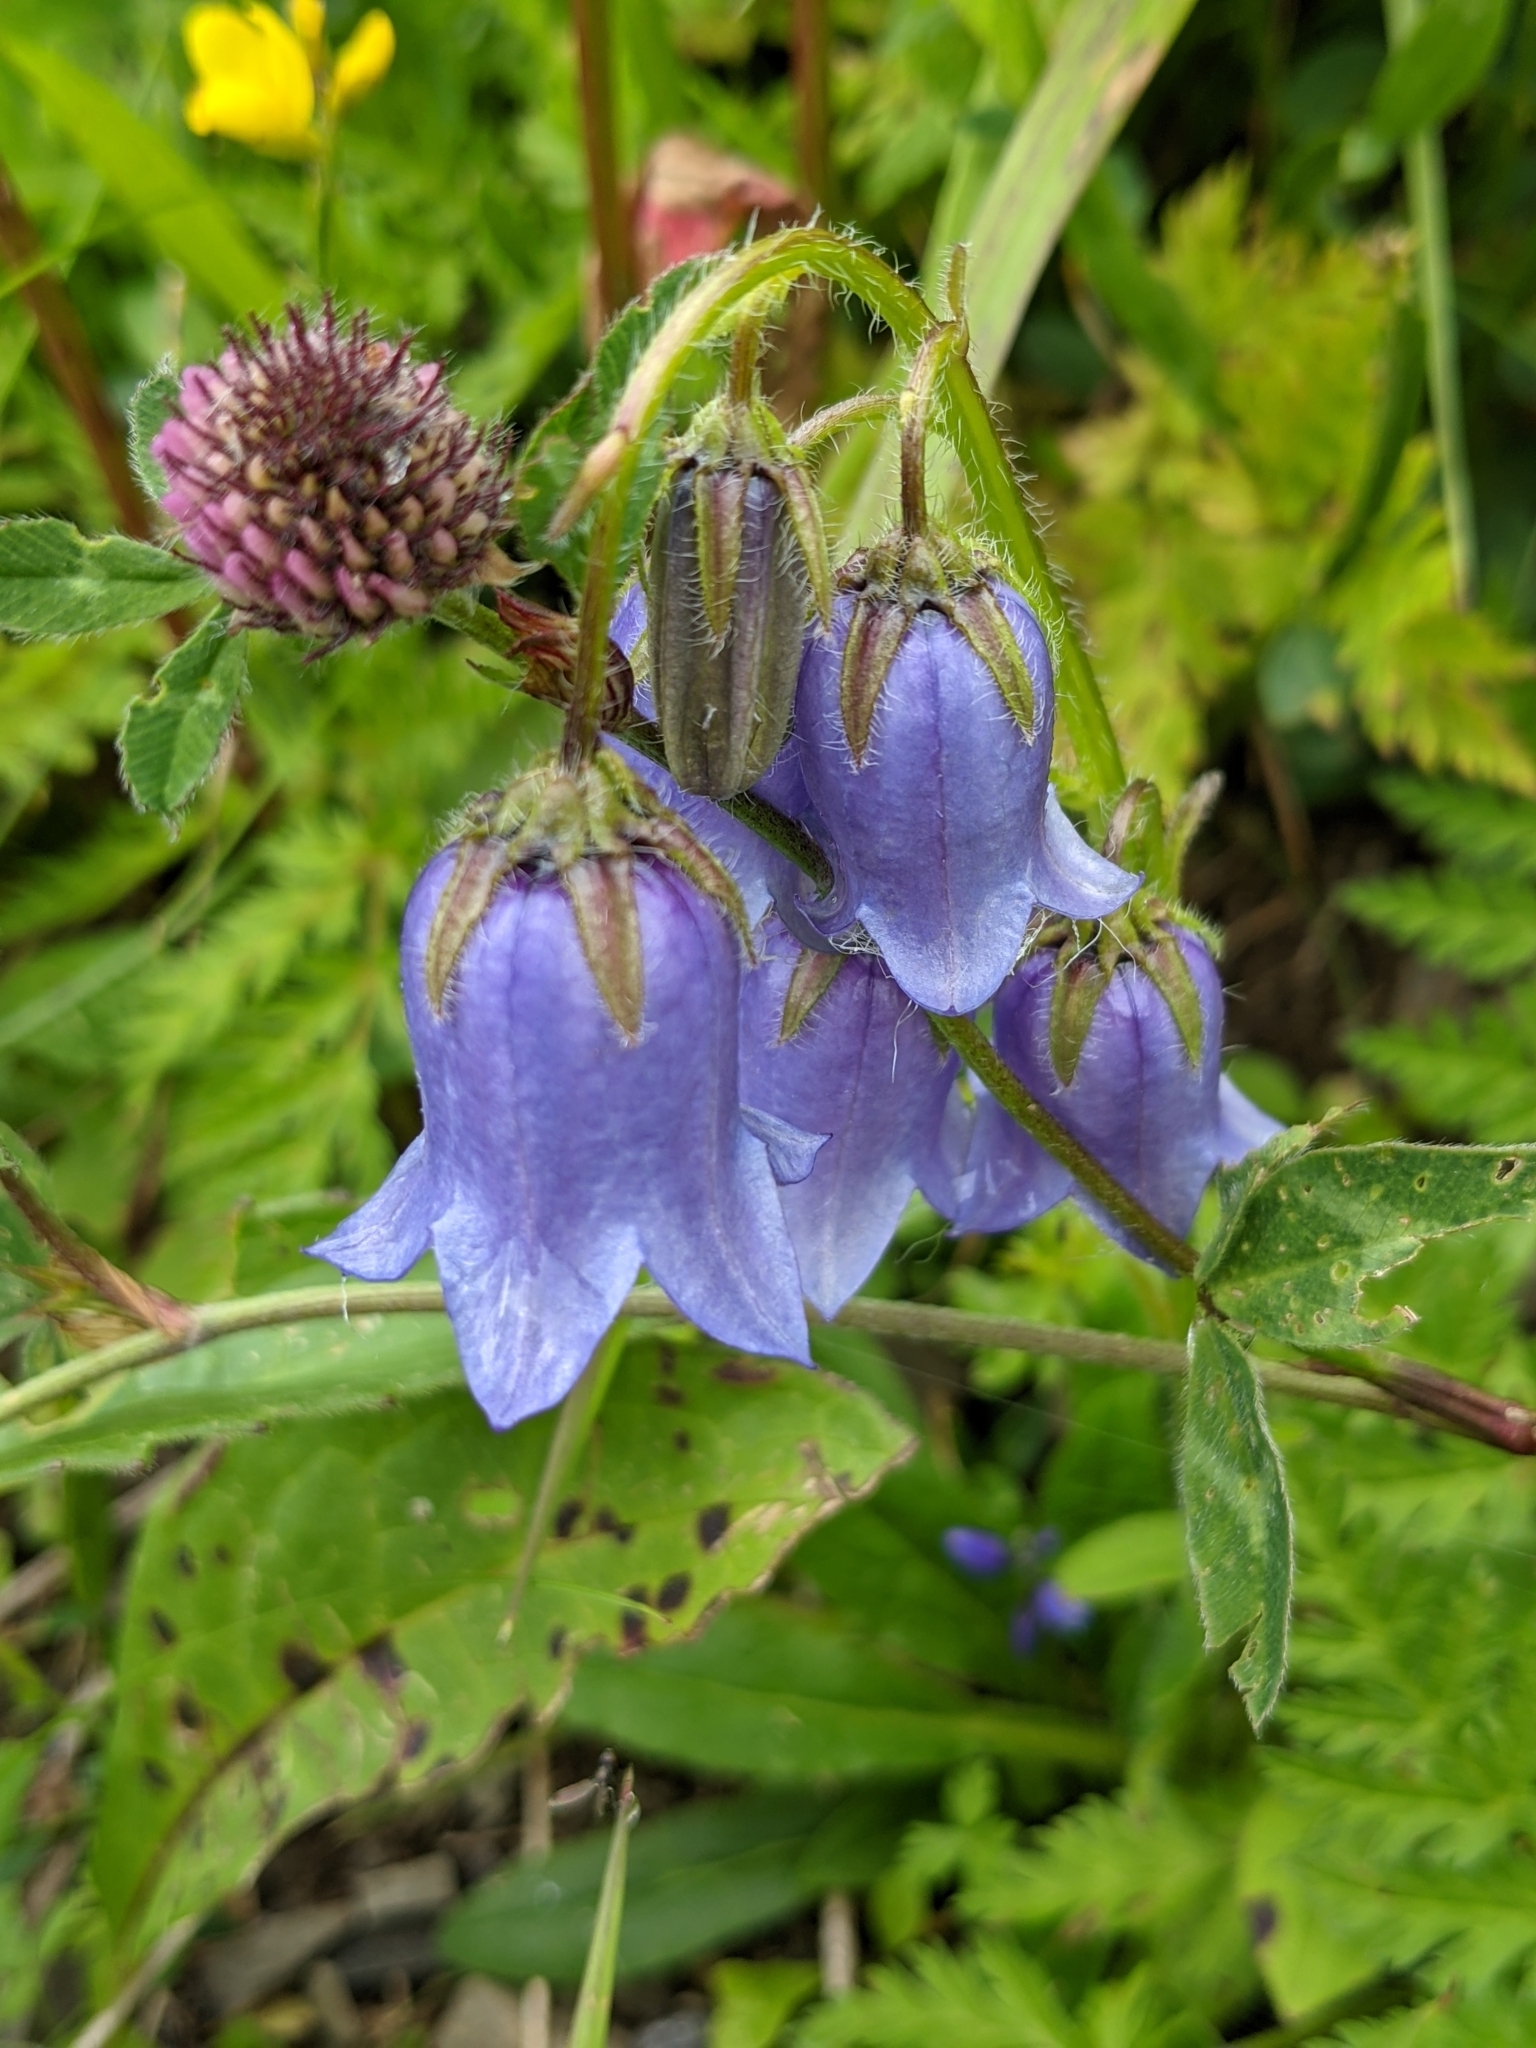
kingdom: Plantae
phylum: Tracheophyta
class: Magnoliopsida
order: Asterales
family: Campanulaceae
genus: Campanula
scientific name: Campanula barbata
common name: Bearded bellflower
